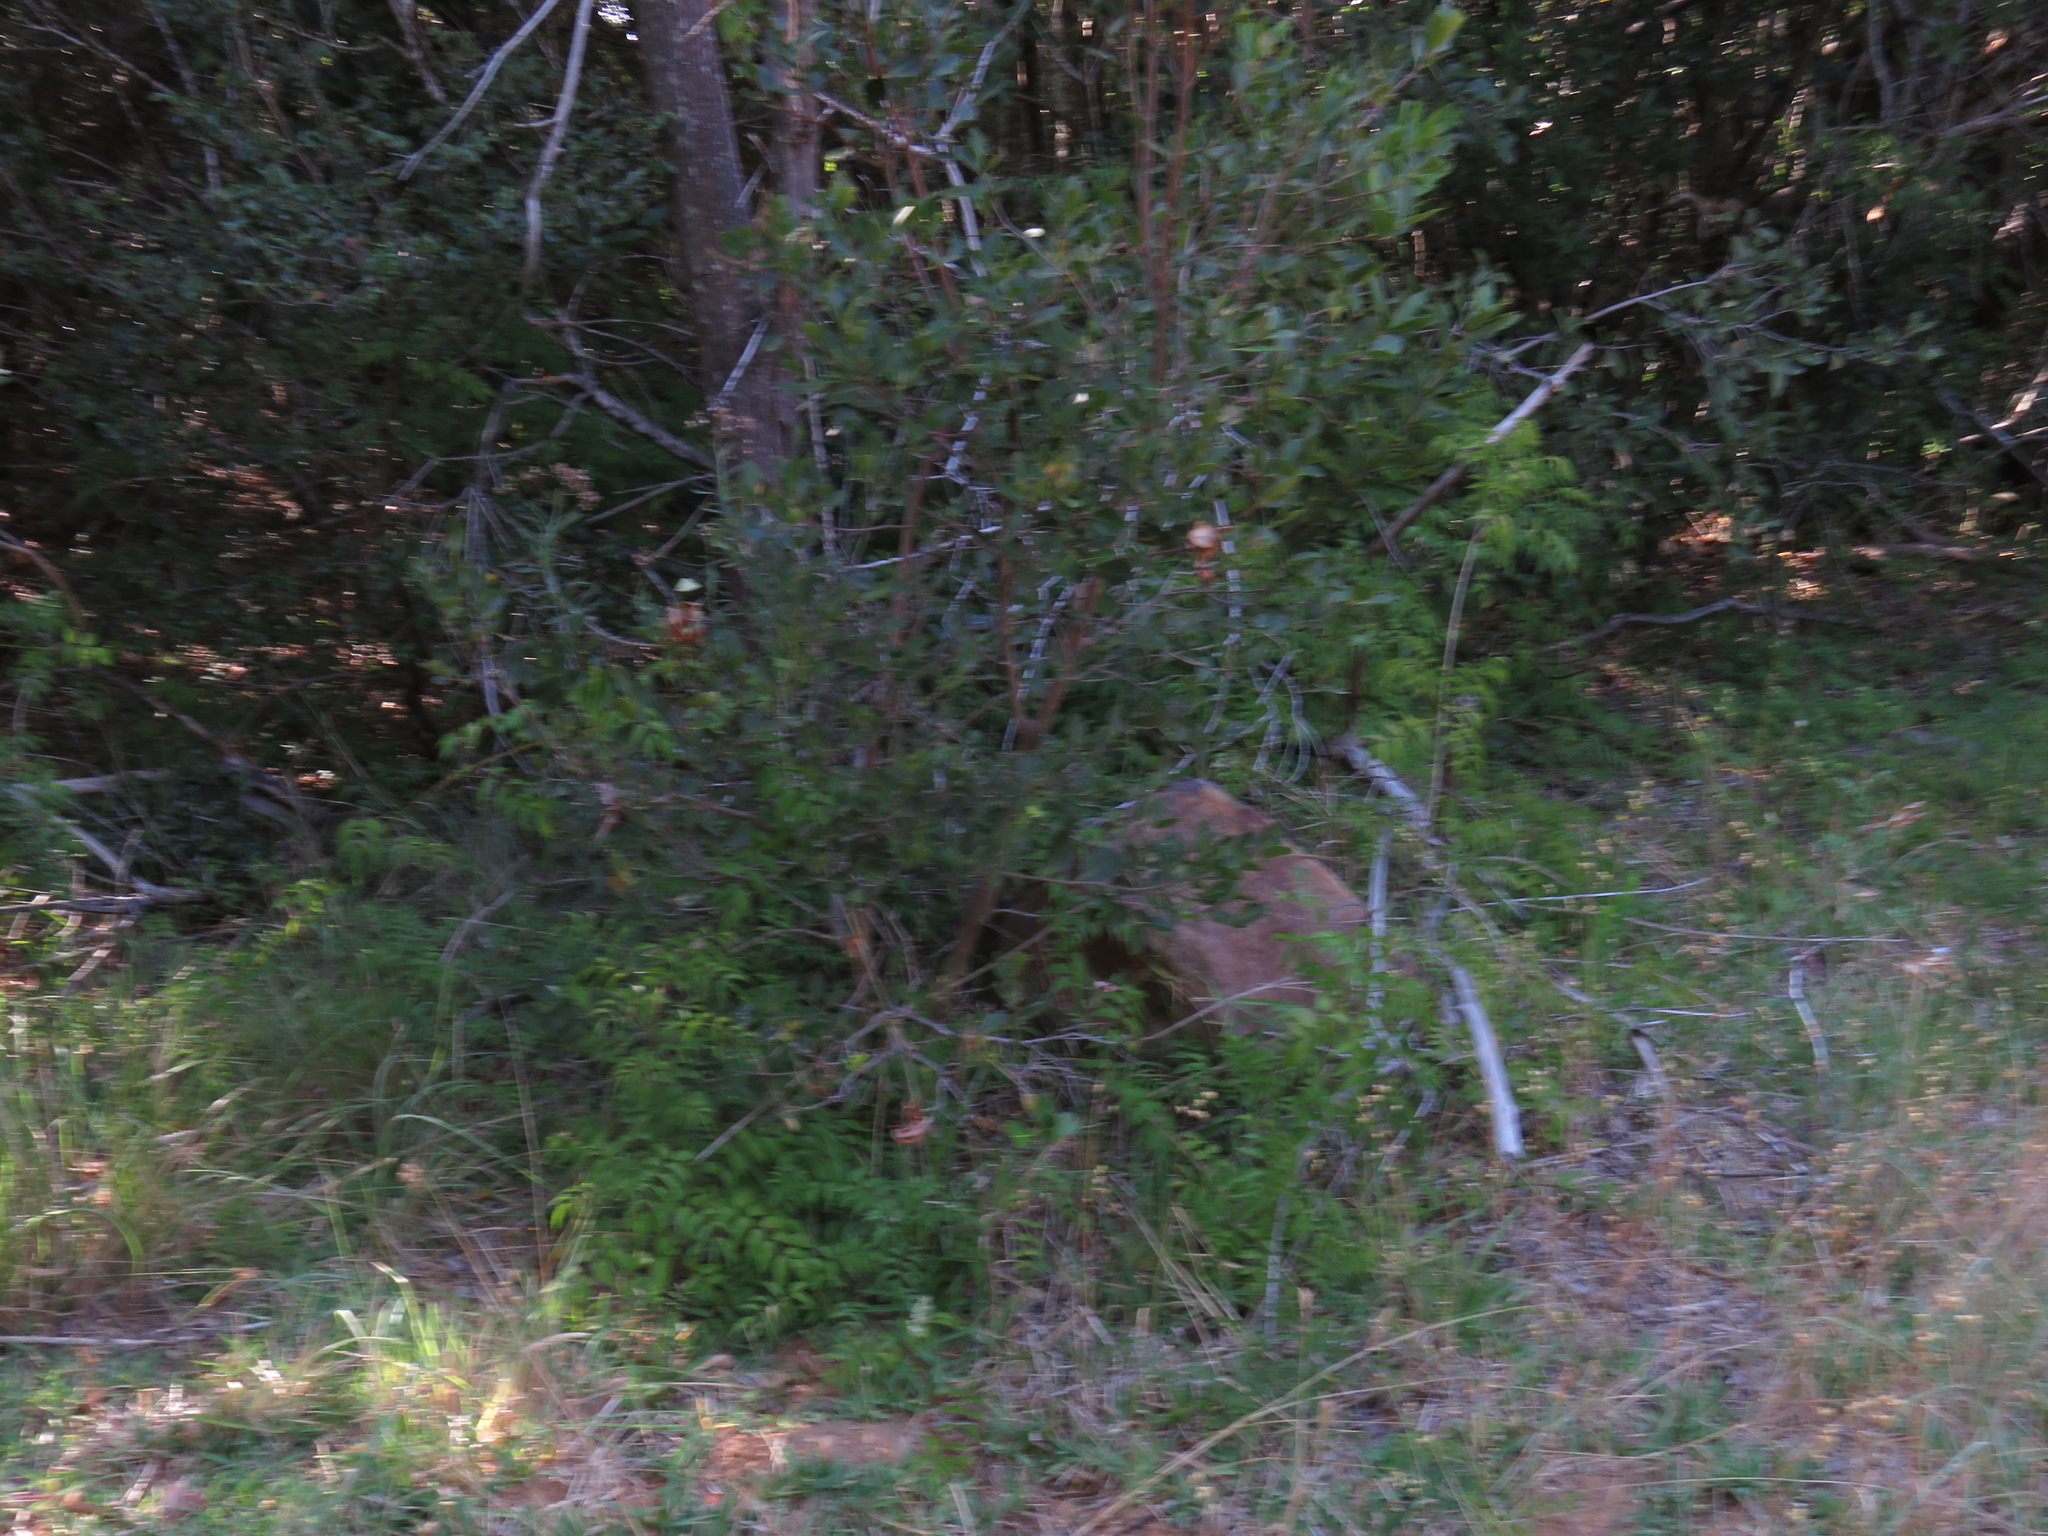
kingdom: Plantae
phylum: Tracheophyta
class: Magnoliopsida
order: Lamiales
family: Bignoniaceae
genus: Podranea
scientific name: Podranea ricasoliana
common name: Zimbabwe creeper
